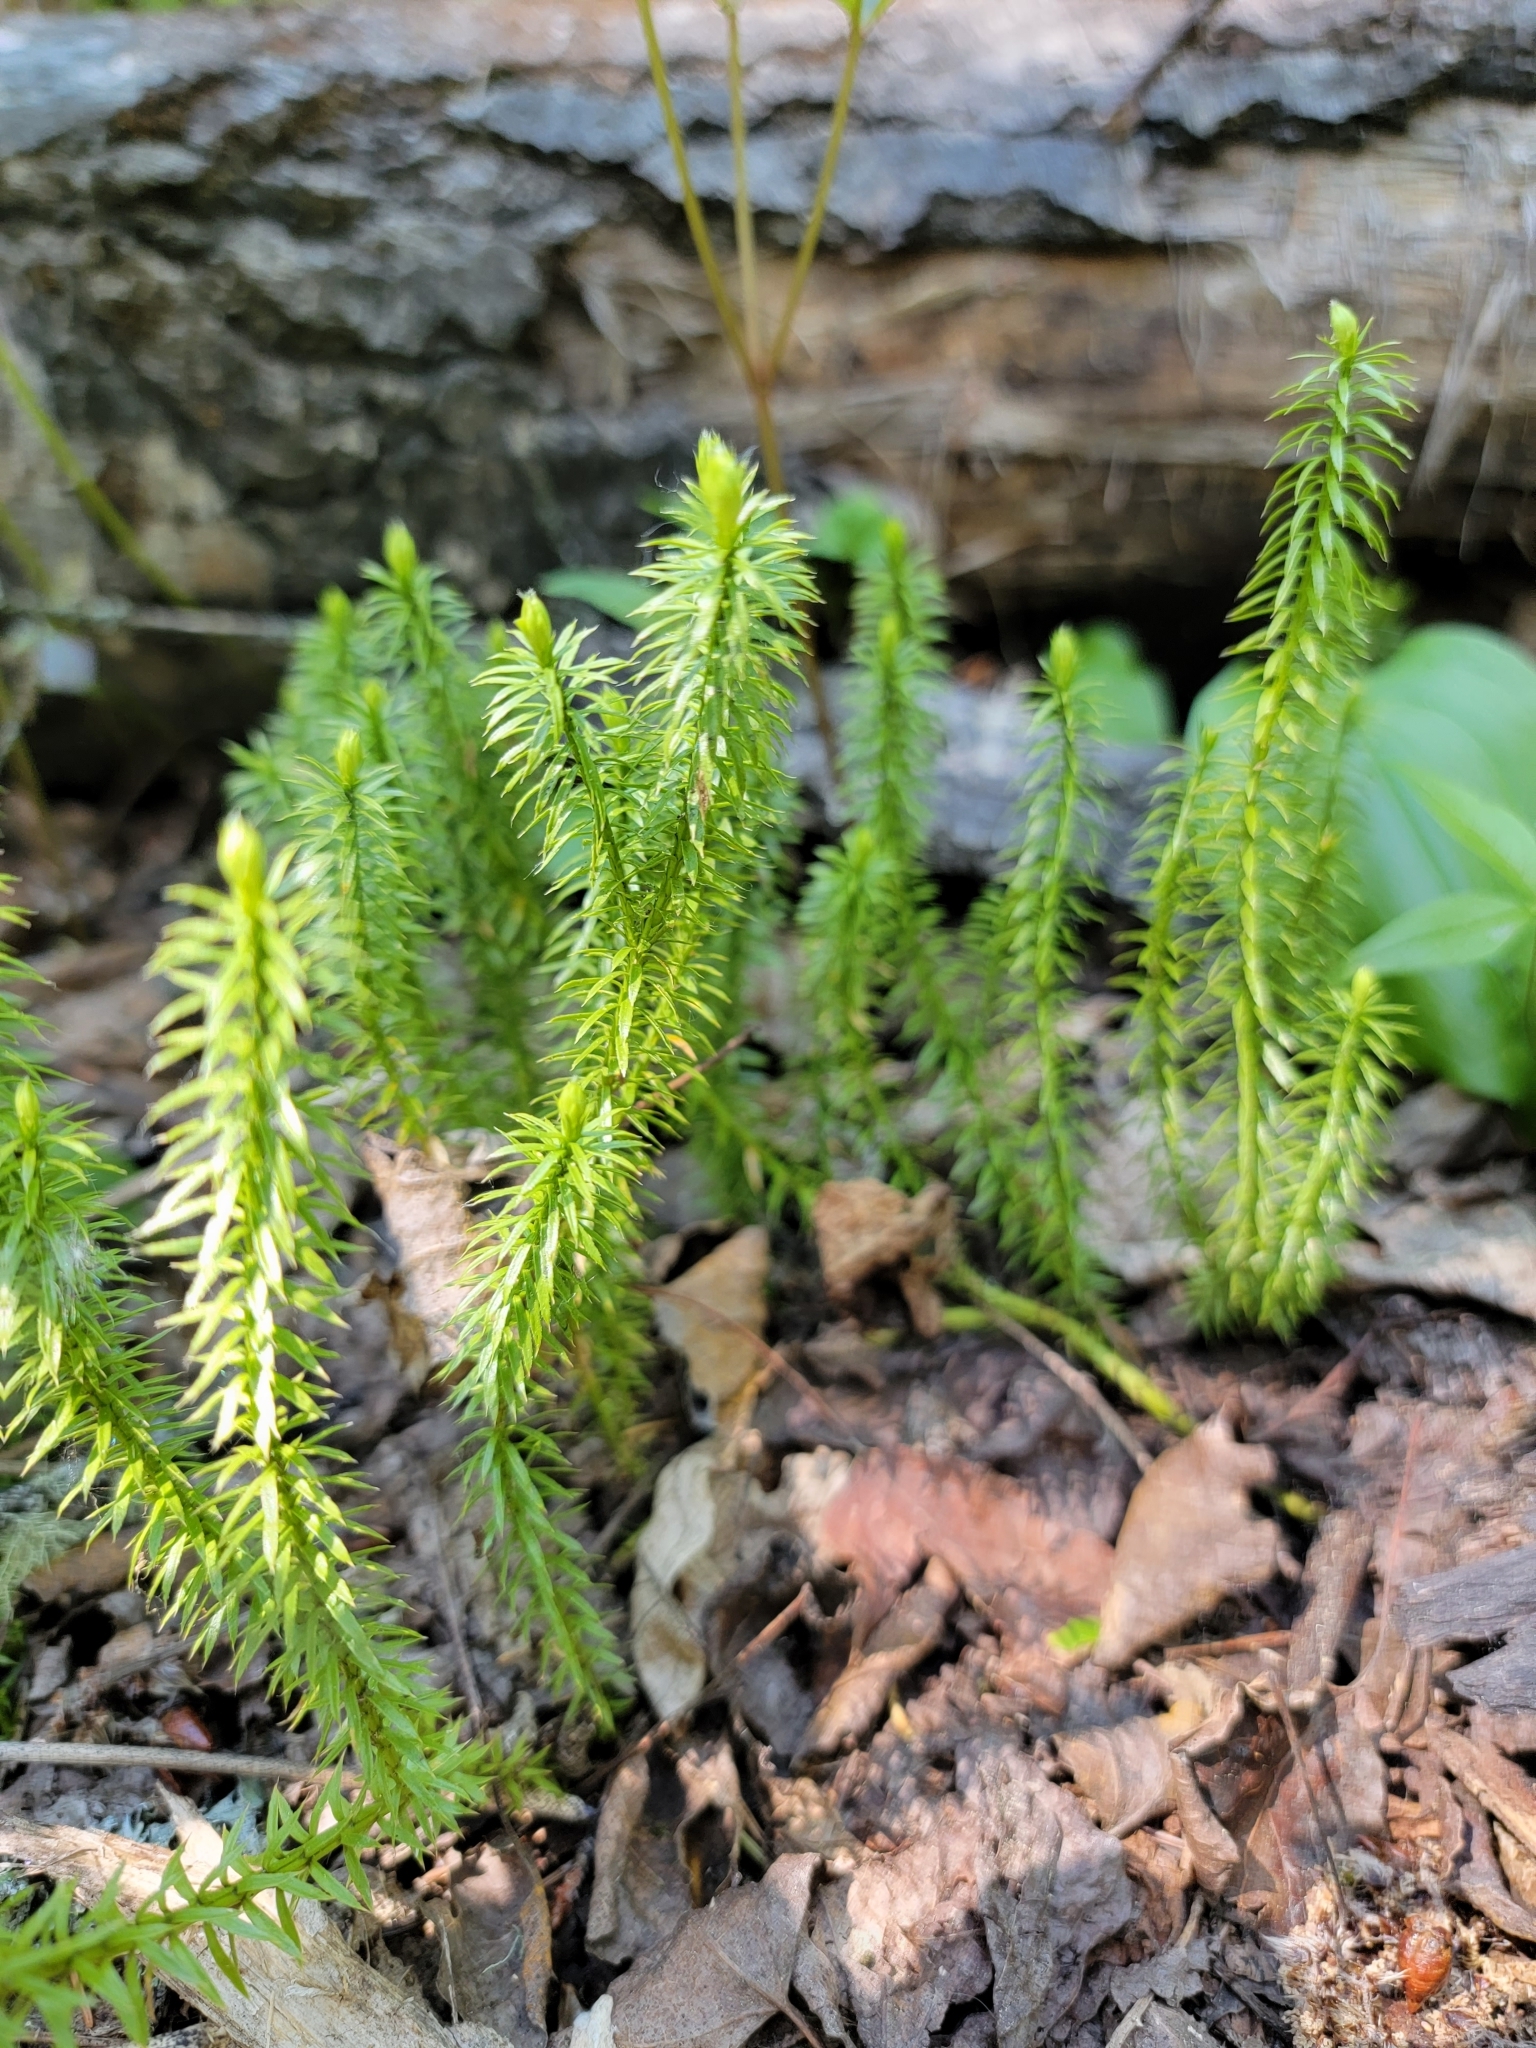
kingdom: Plantae
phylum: Tracheophyta
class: Lycopodiopsida
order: Lycopodiales
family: Lycopodiaceae
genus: Spinulum
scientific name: Spinulum annotinum
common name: Interrupted club-moss
